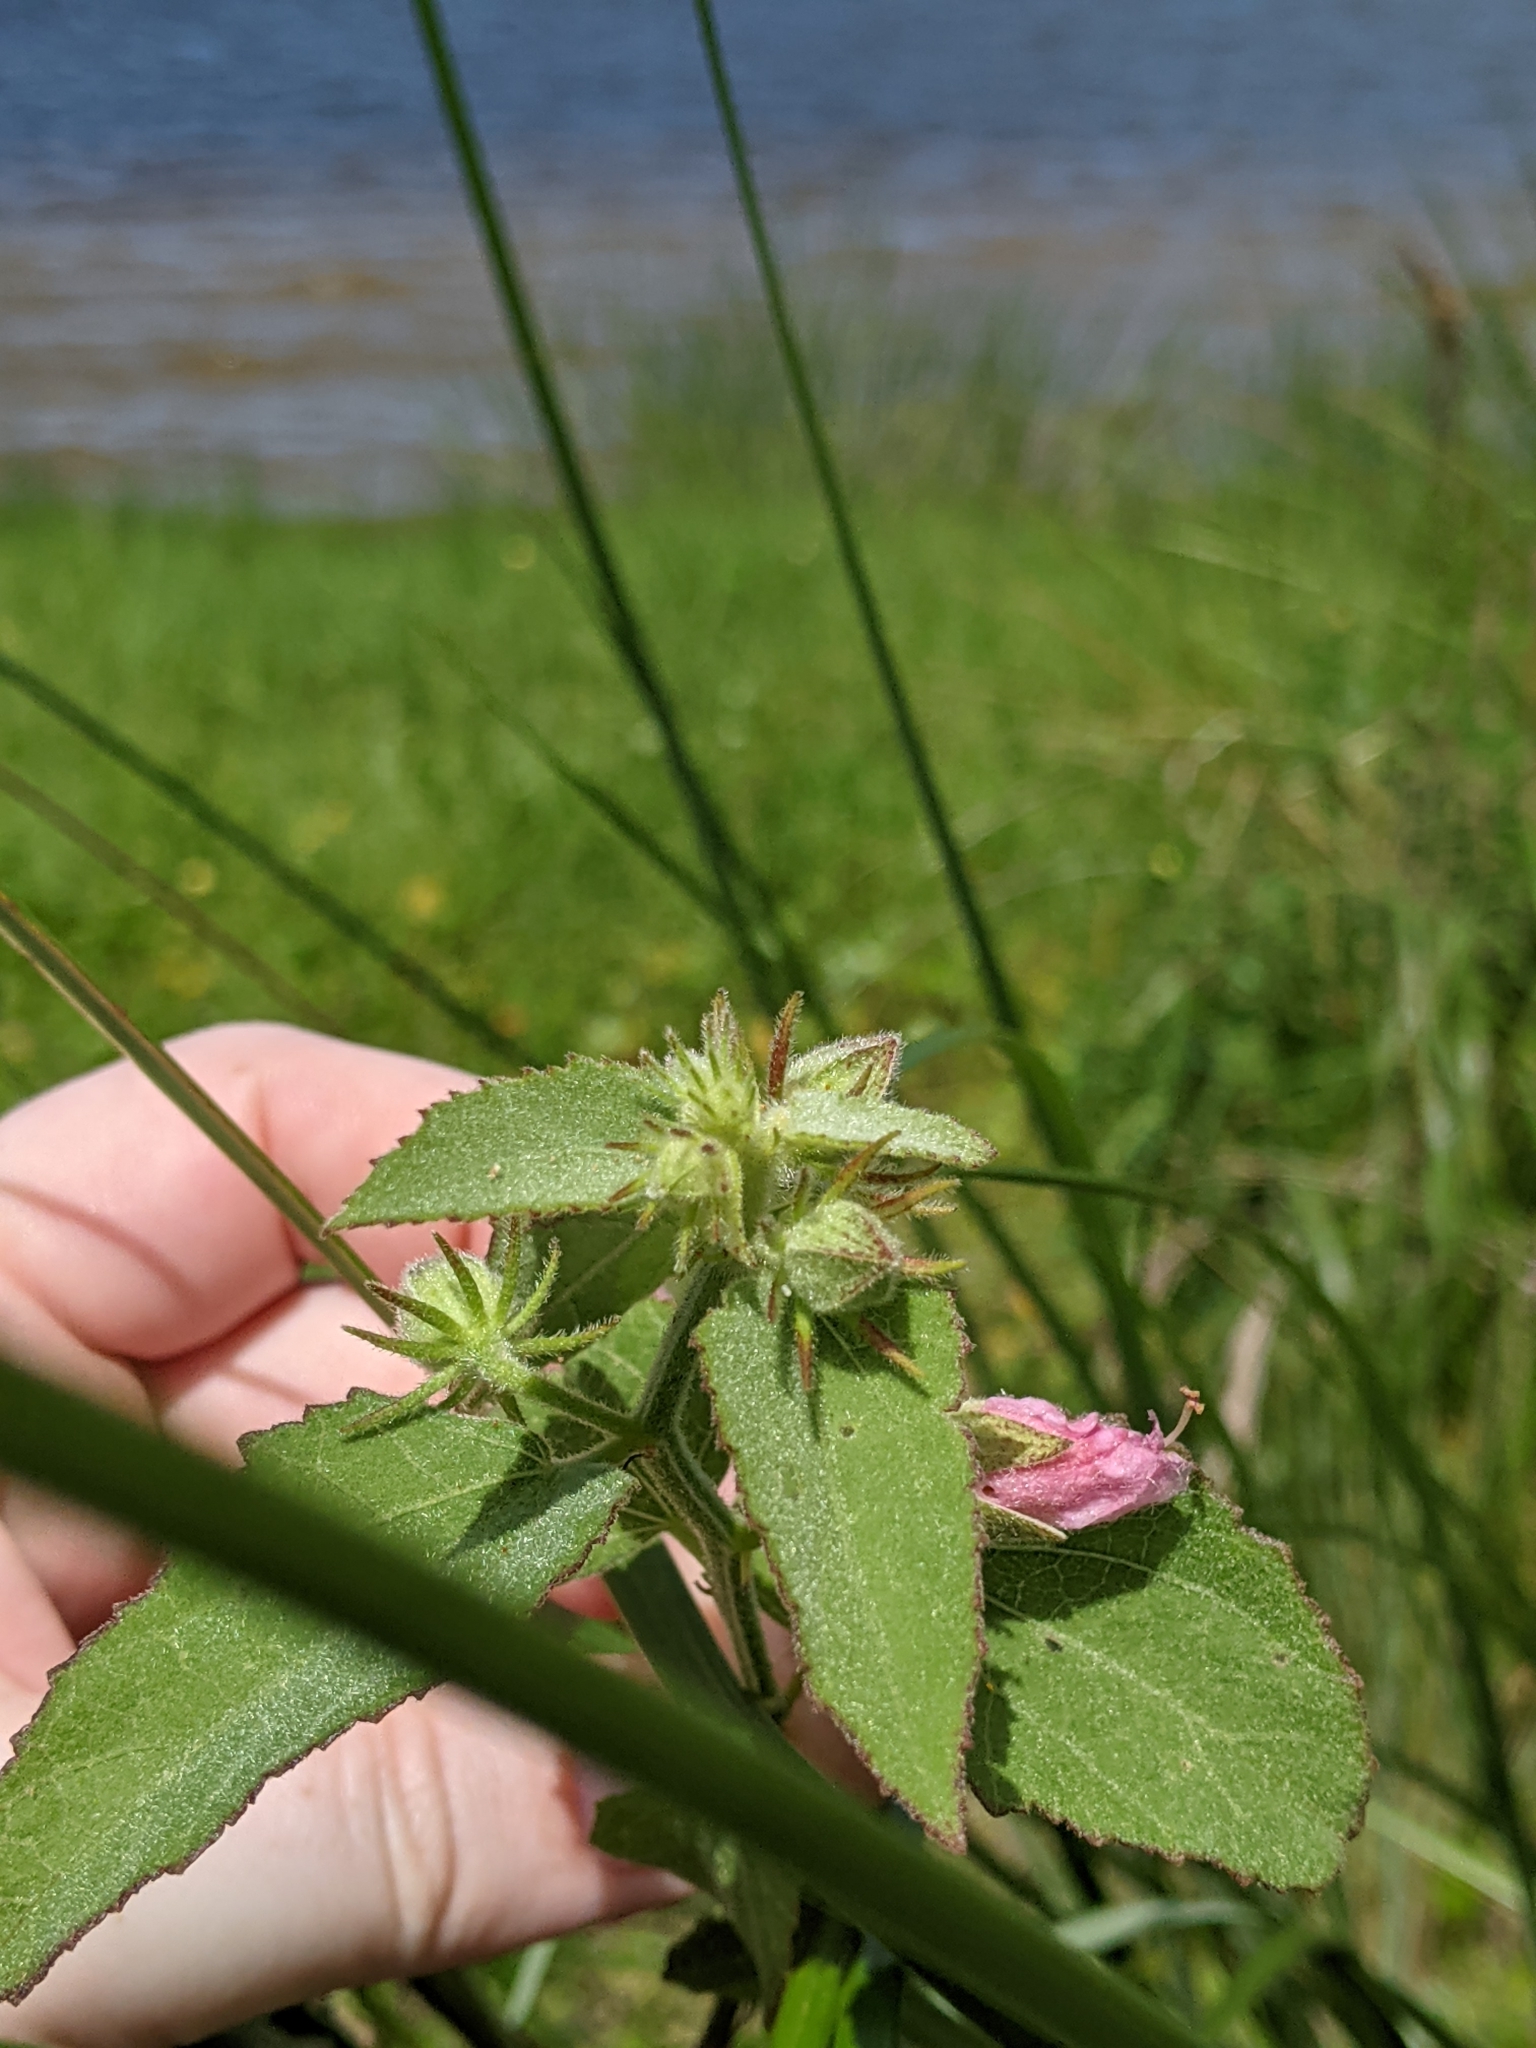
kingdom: Plantae
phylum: Tracheophyta
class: Magnoliopsida
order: Malvales
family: Malvaceae
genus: Kosteletzkya
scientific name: Kosteletzkya pentacarpos
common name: Virginia saltmarsh mallow
